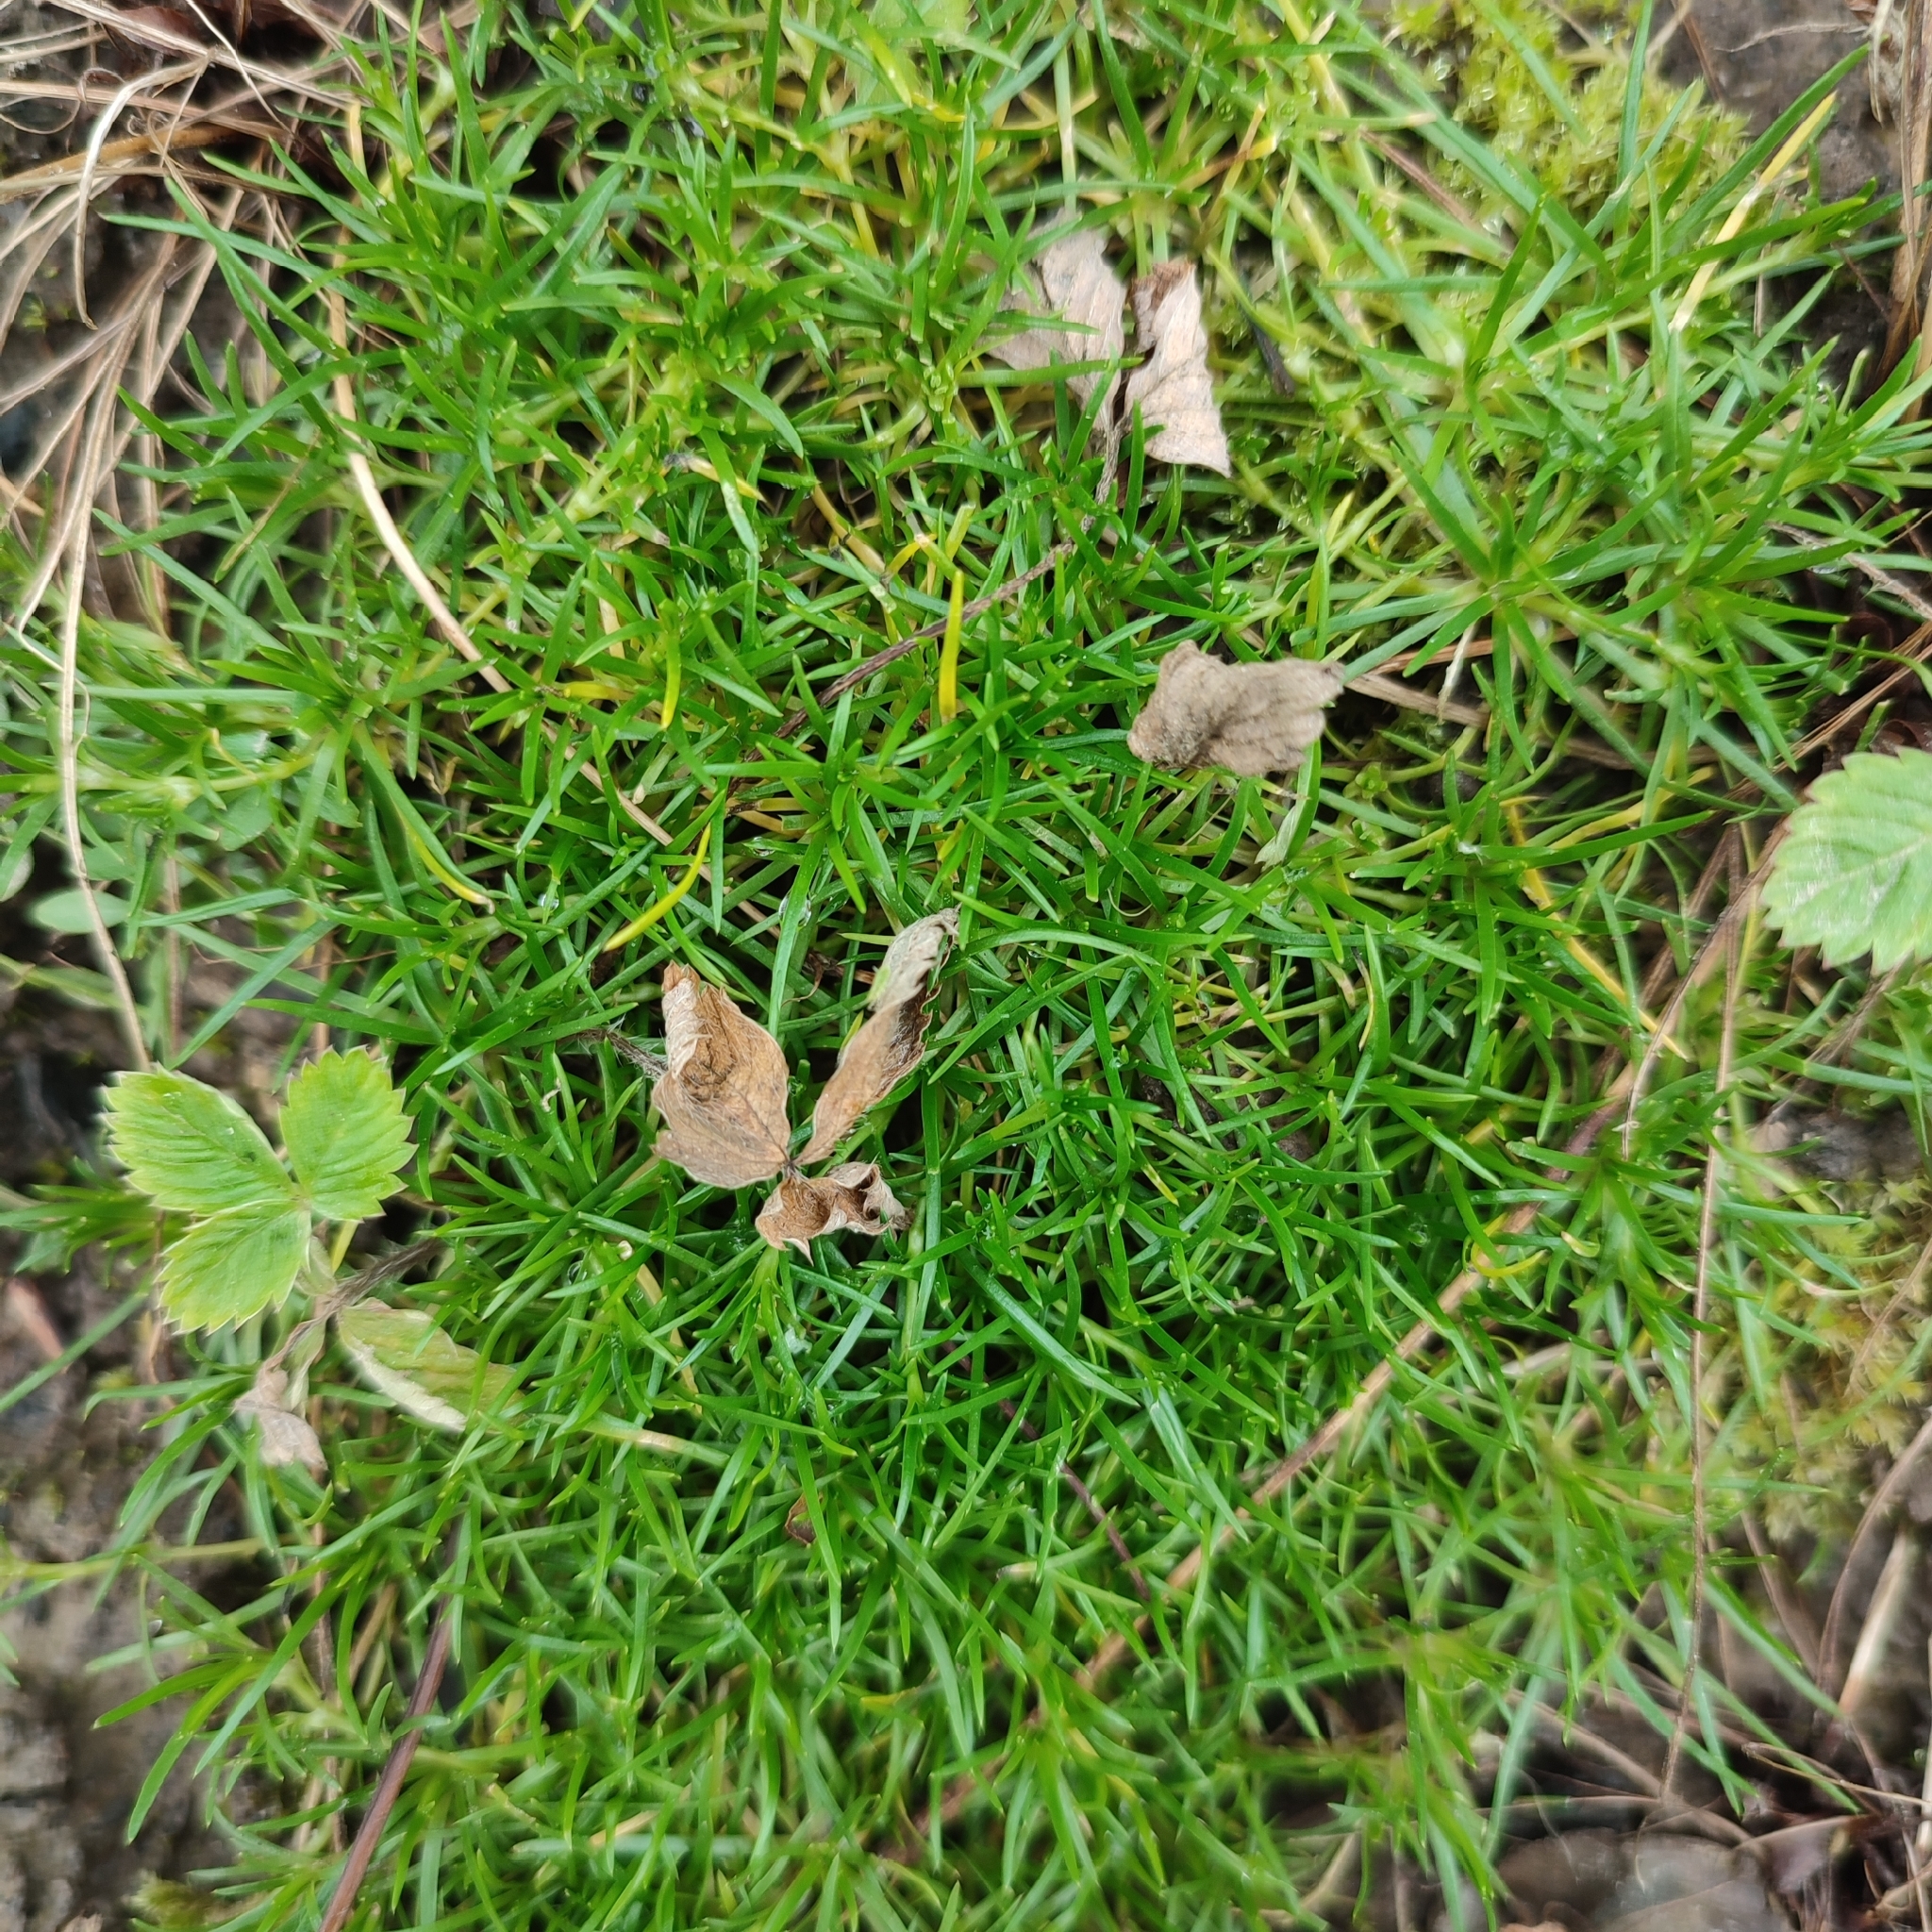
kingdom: Plantae
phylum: Tracheophyta
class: Magnoliopsida
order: Caryophyllales
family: Caryophyllaceae
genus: Sagina
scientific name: Sagina procumbens
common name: Procumbent pearlwort
